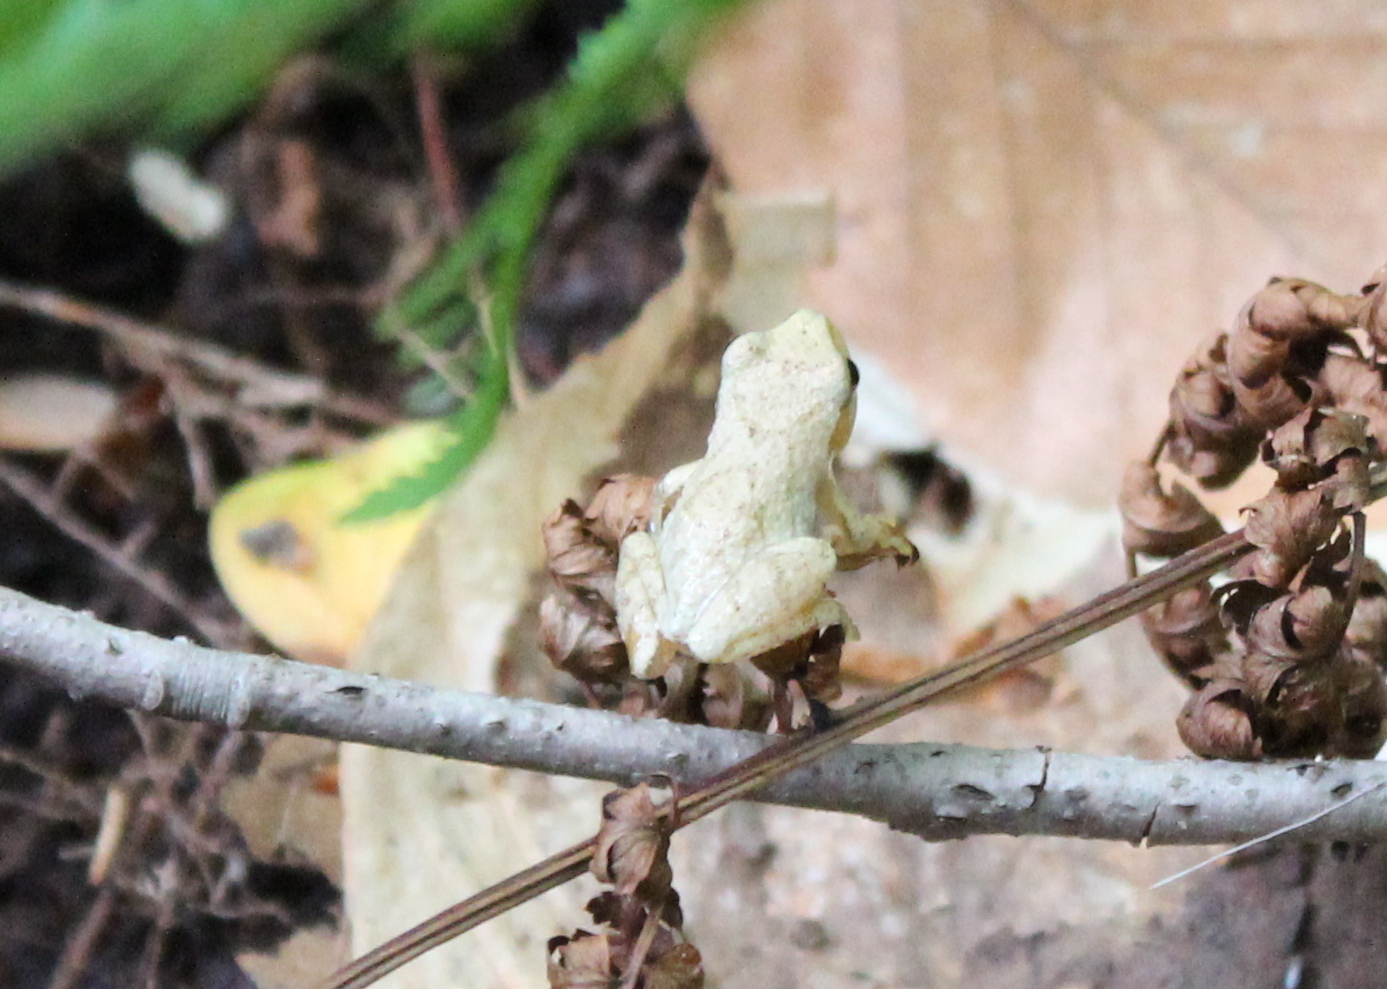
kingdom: Animalia
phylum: Chordata
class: Amphibia
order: Anura
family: Hylidae
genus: Pseudacris
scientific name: Pseudacris crucifer
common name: Spring peeper
